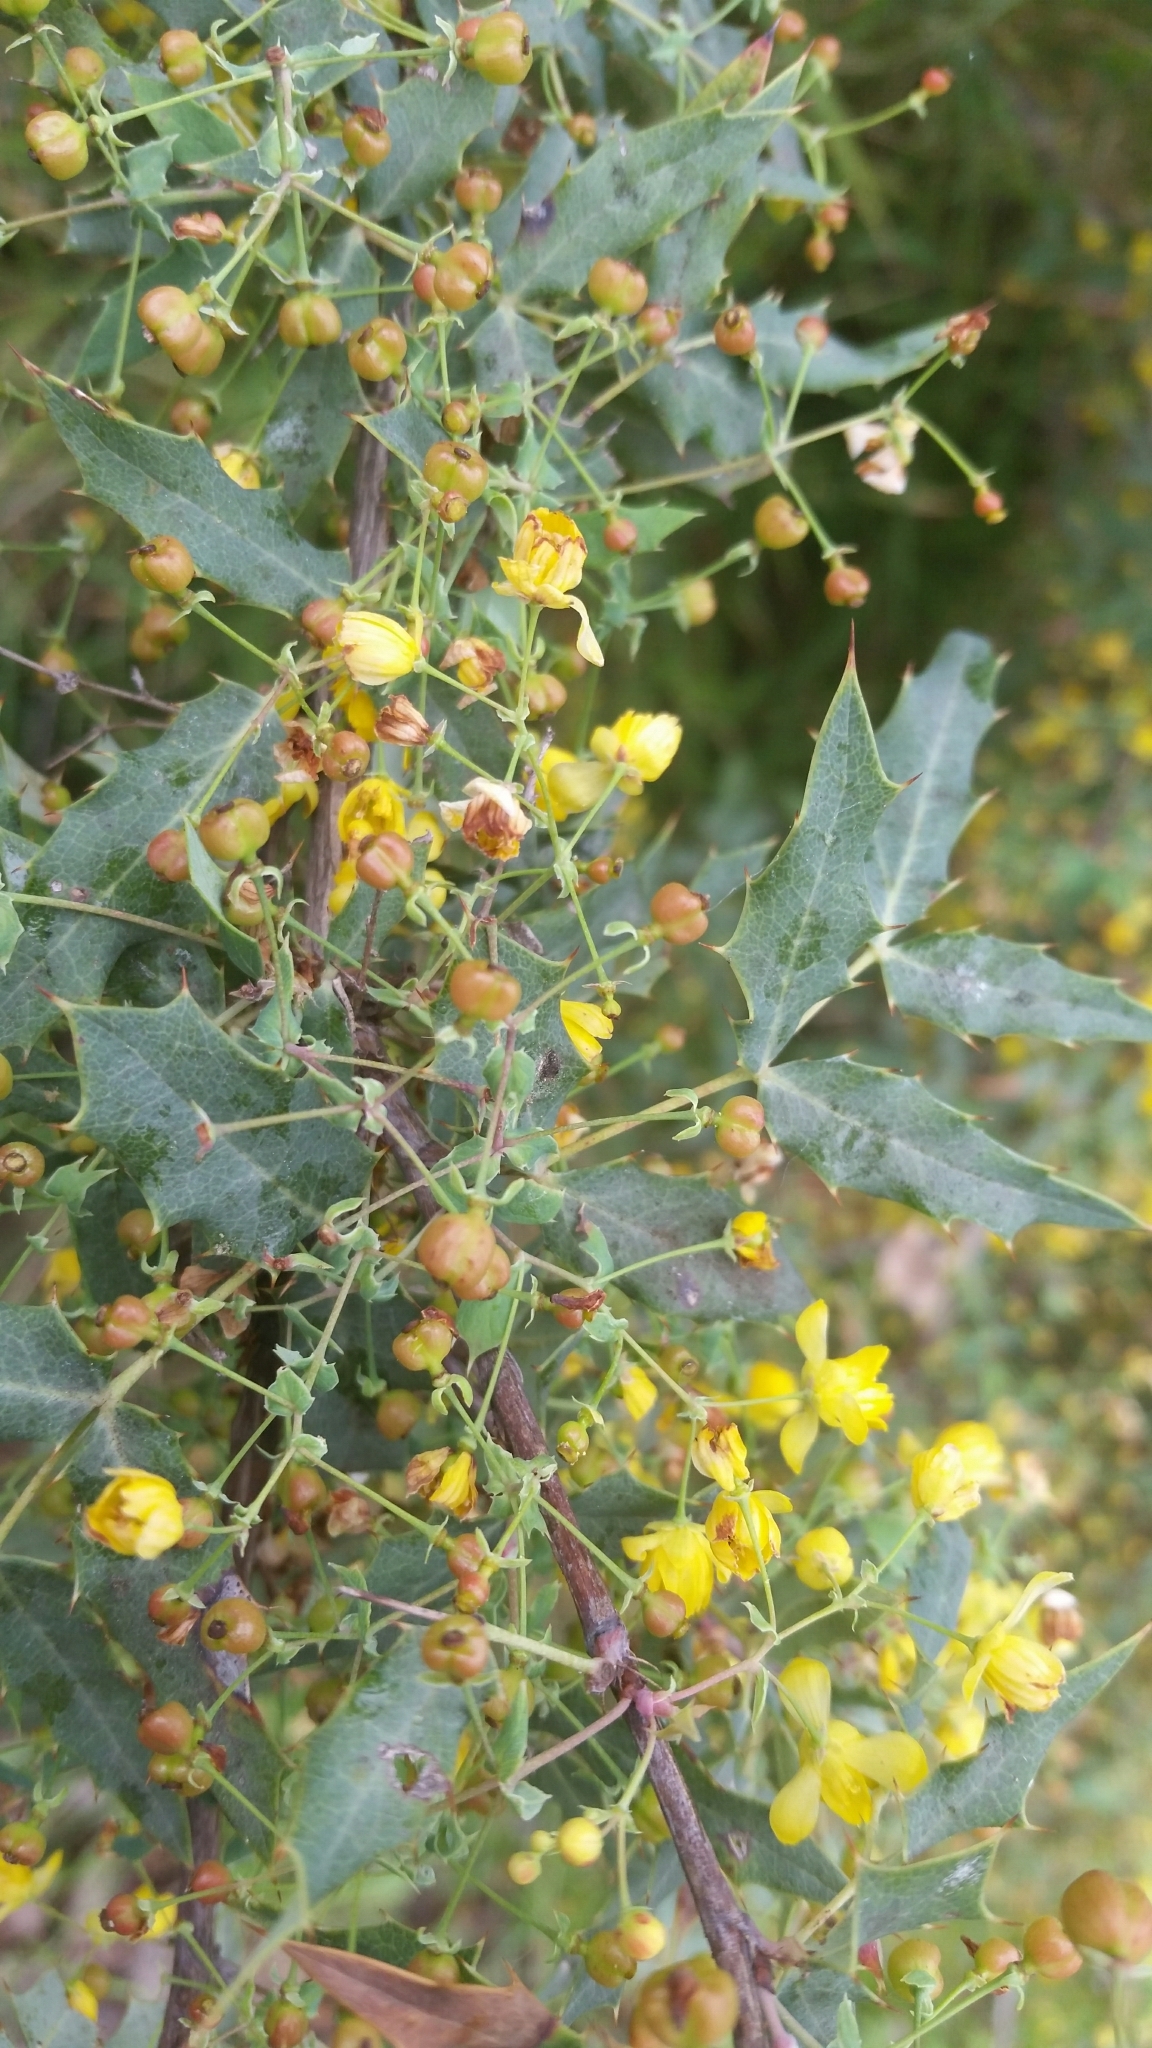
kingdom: Plantae
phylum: Tracheophyta
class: Magnoliopsida
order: Ranunculales
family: Berberidaceae
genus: Alloberberis
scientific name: Alloberberis nevinii
